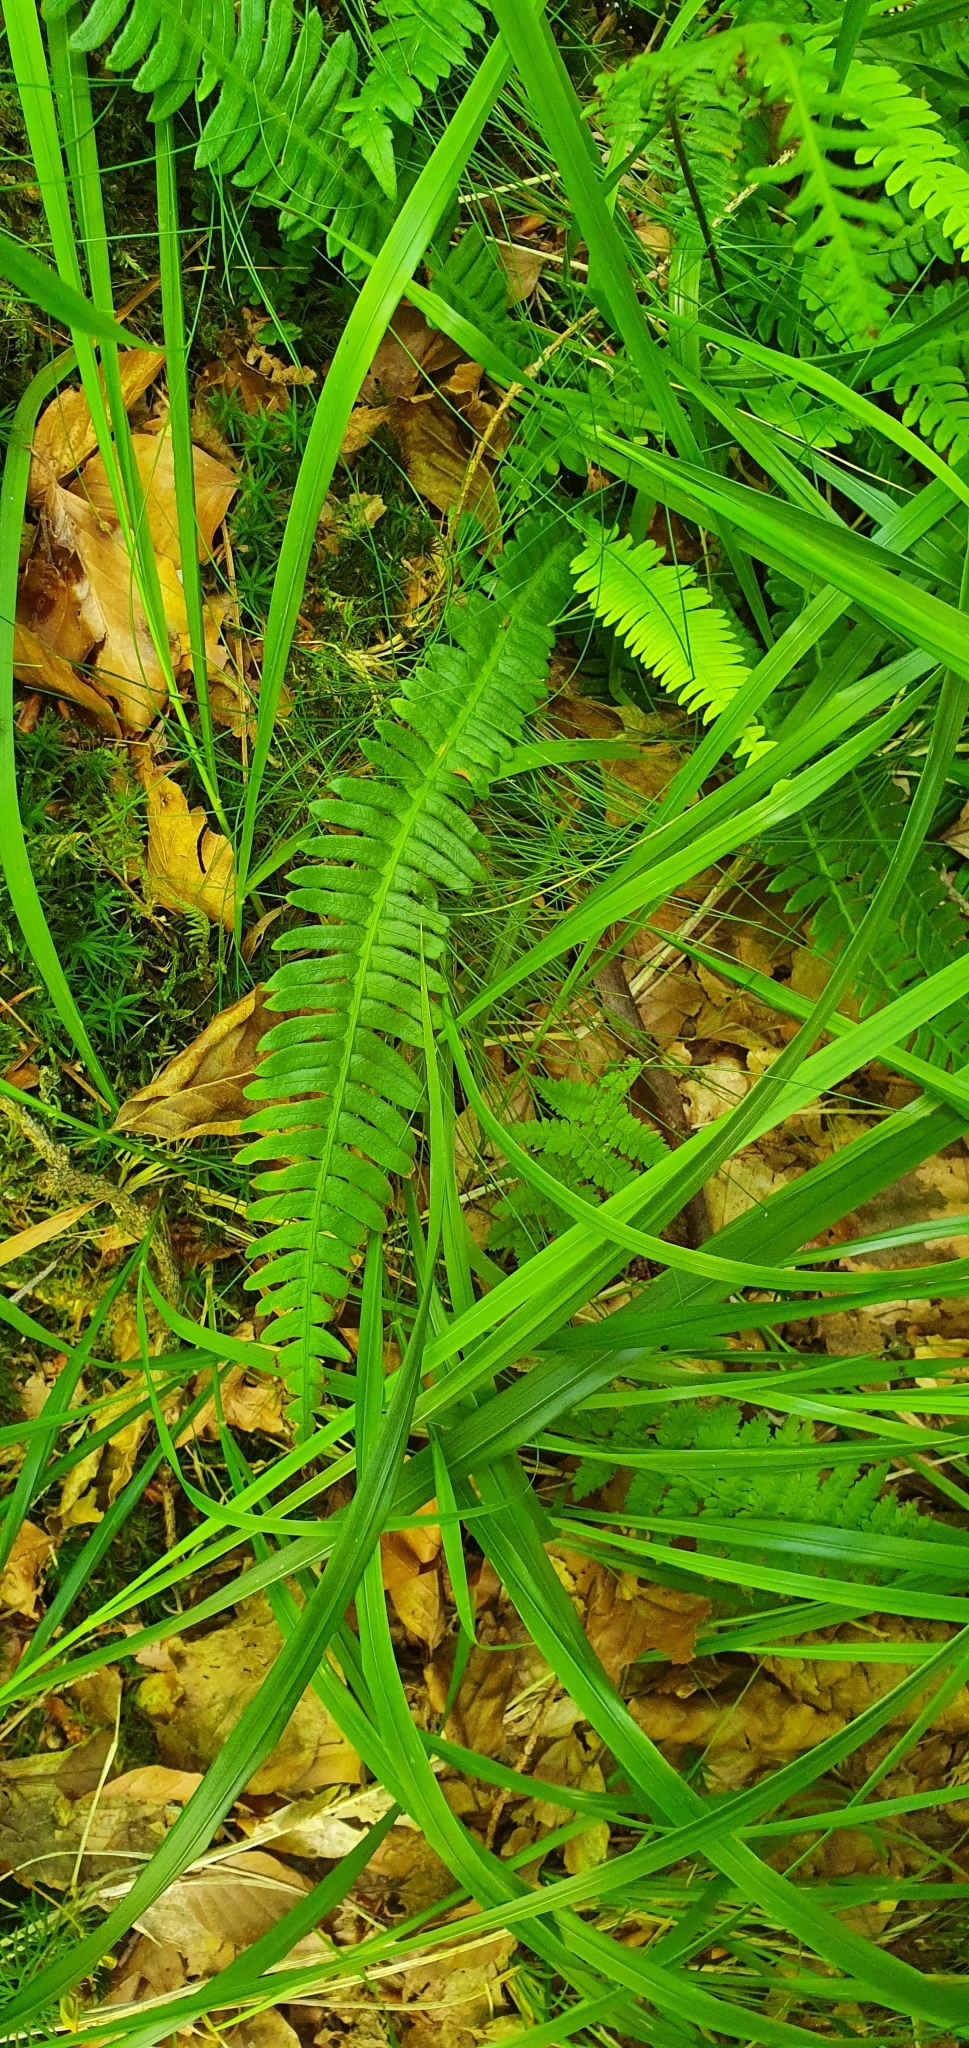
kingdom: Plantae
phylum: Tracheophyta
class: Polypodiopsida
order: Polypodiales
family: Blechnaceae
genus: Struthiopteris
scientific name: Struthiopteris spicant
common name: Deer fern
